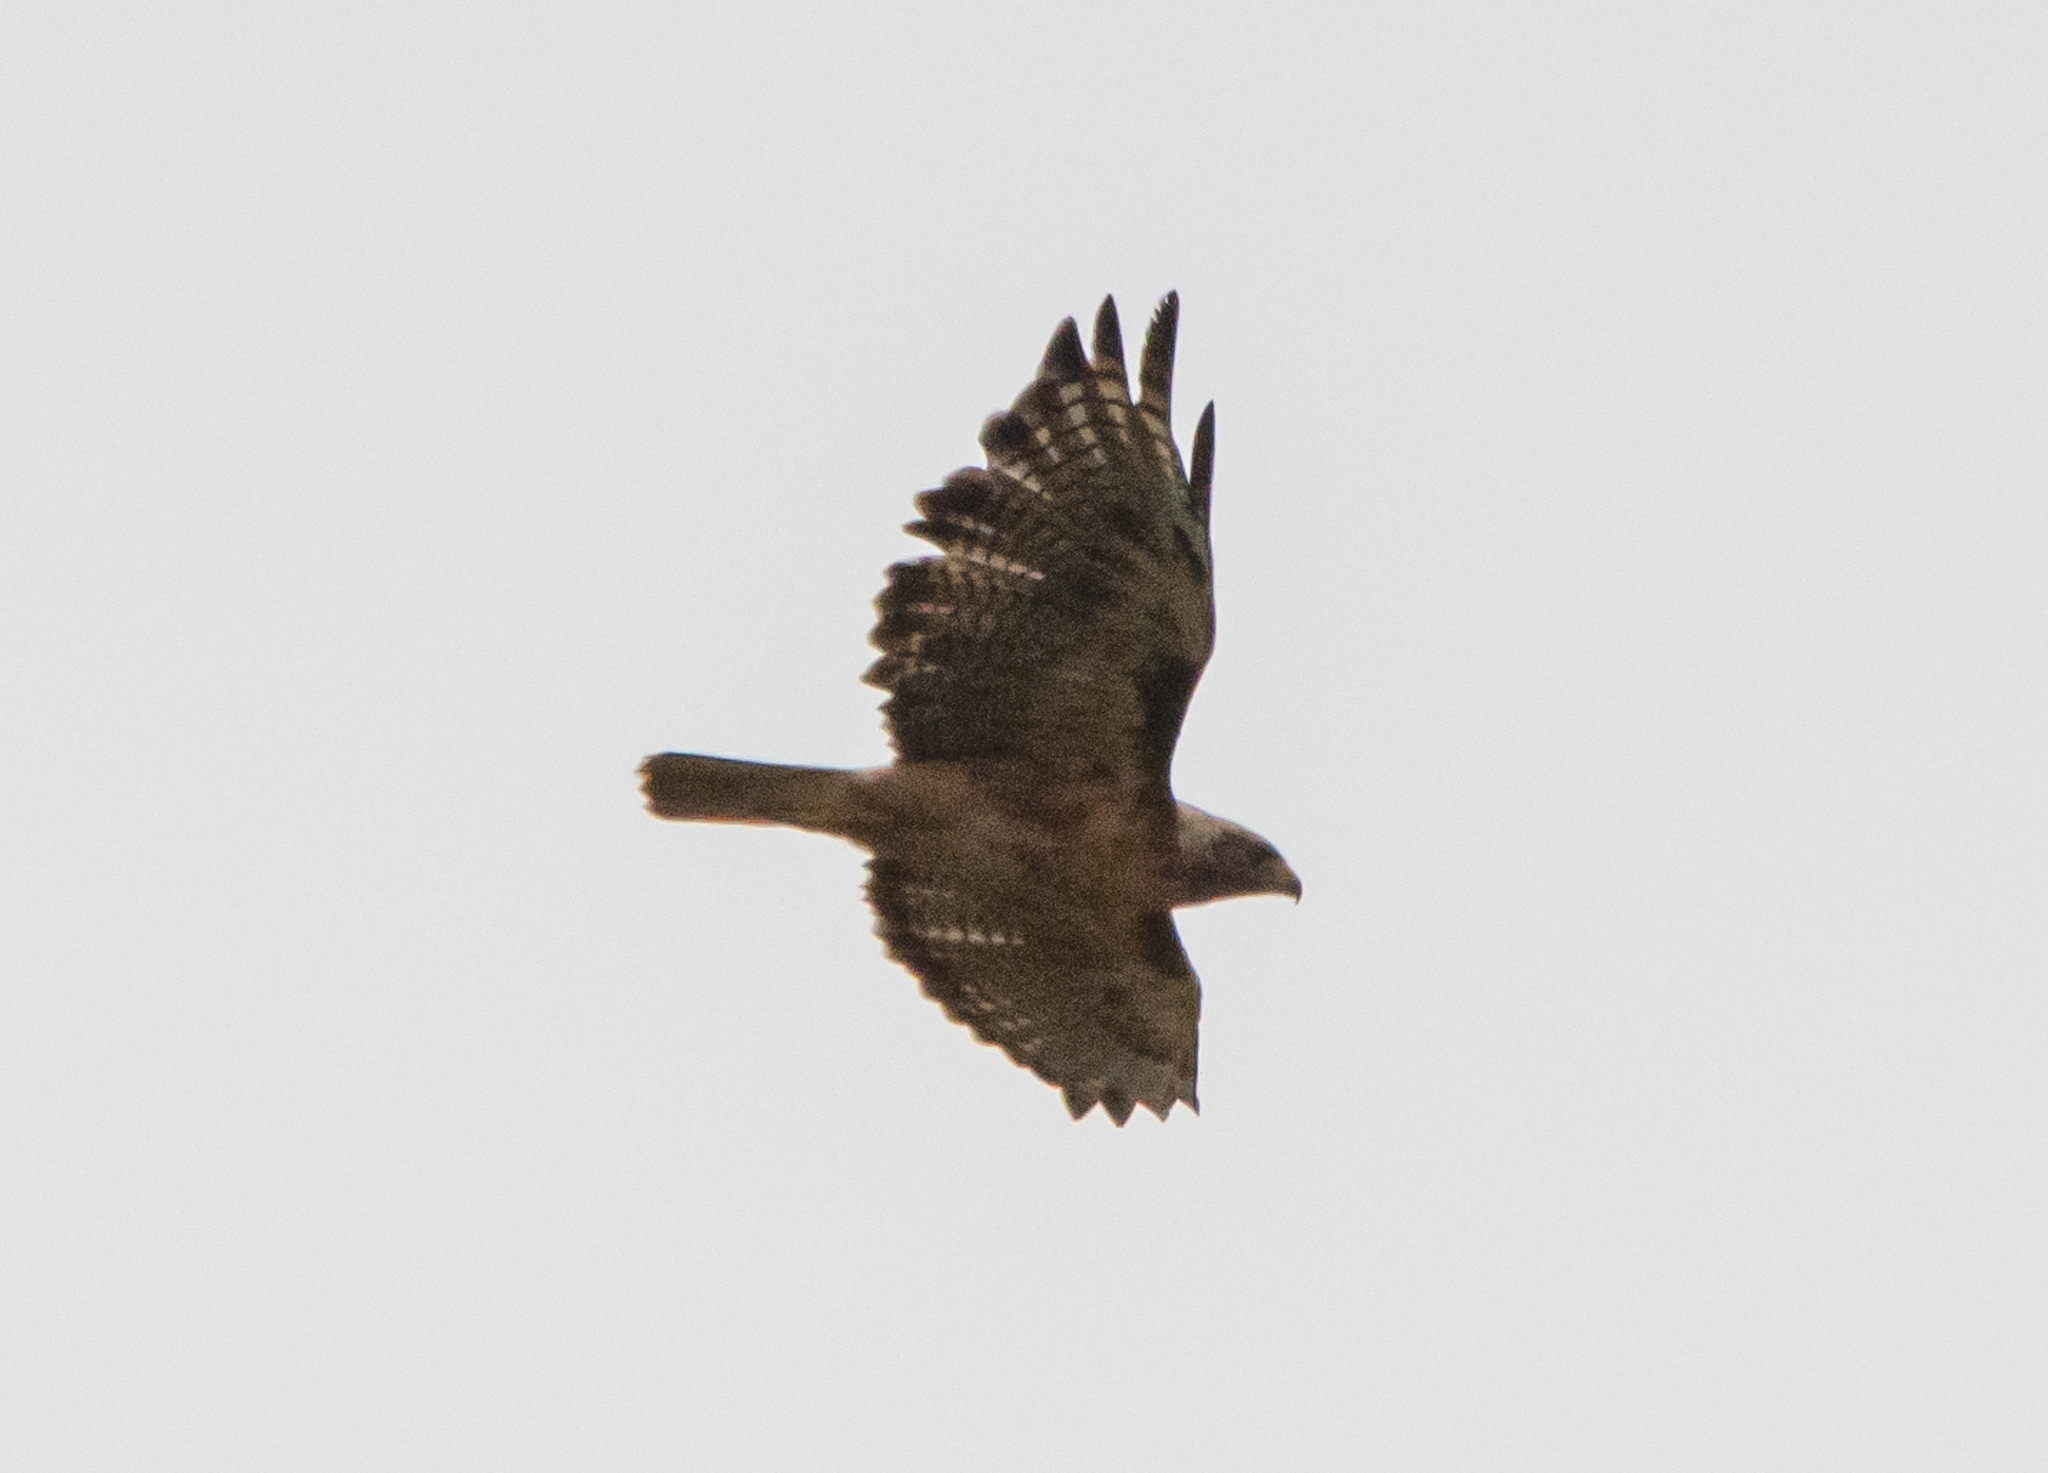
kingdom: Animalia
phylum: Chordata
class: Aves
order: Accipitriformes
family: Accipitridae
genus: Buteo
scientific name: Buteo jamaicensis
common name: Red-tailed hawk
